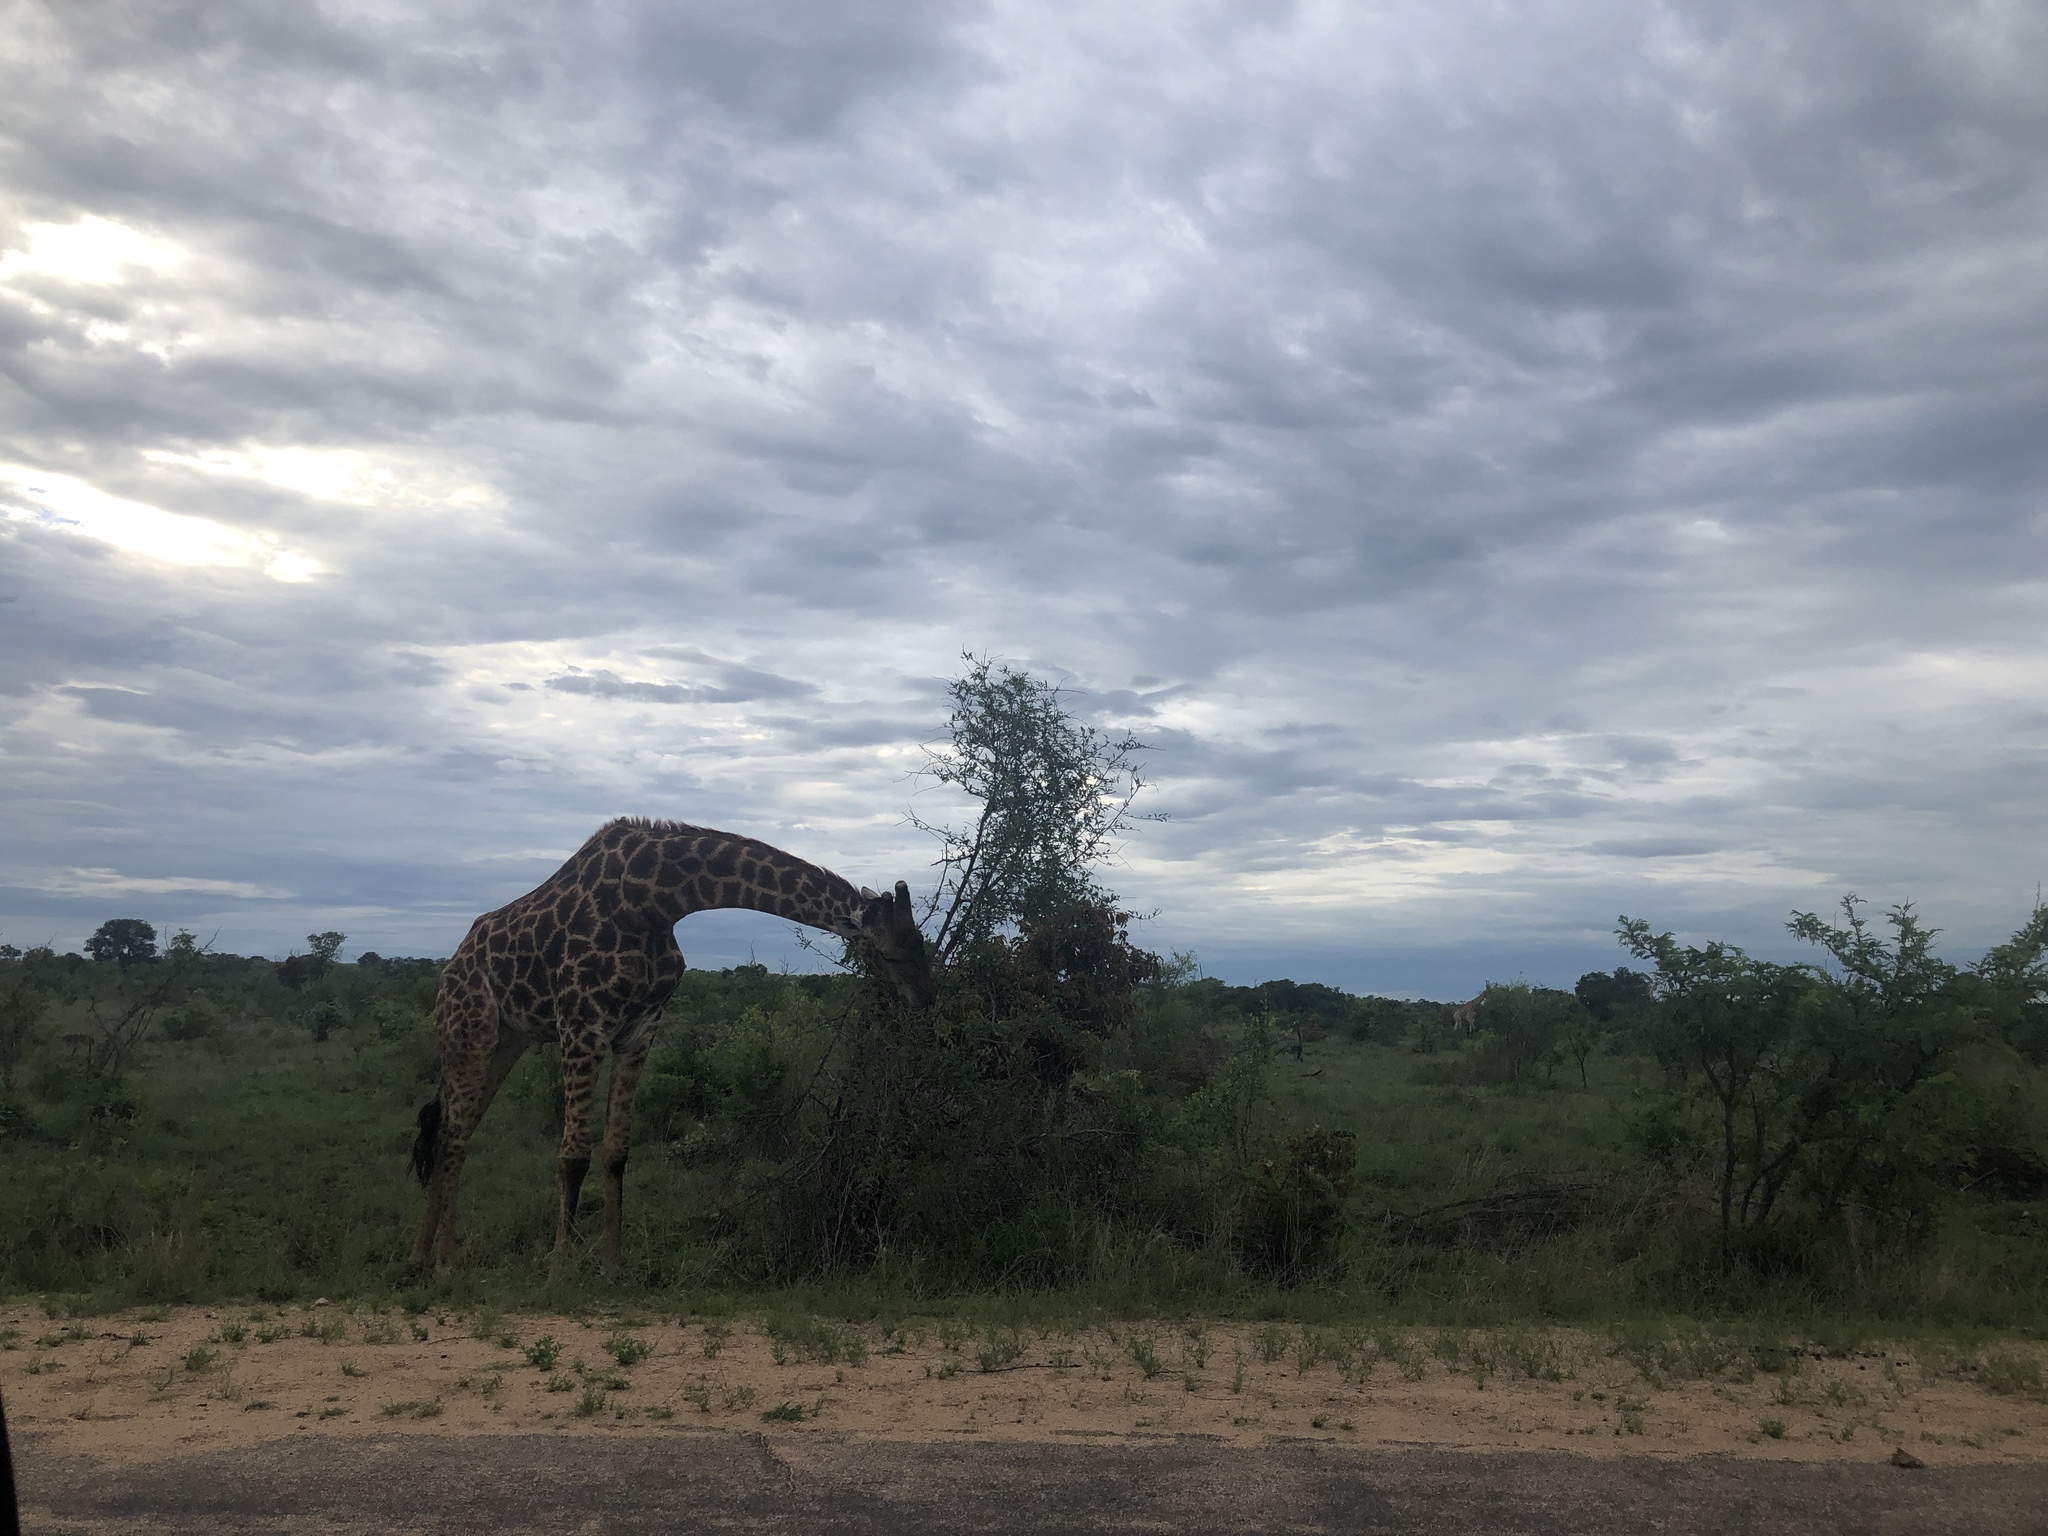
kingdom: Animalia
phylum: Chordata
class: Mammalia
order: Artiodactyla
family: Giraffidae
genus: Giraffa
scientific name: Giraffa giraffa
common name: Southern giraffe
